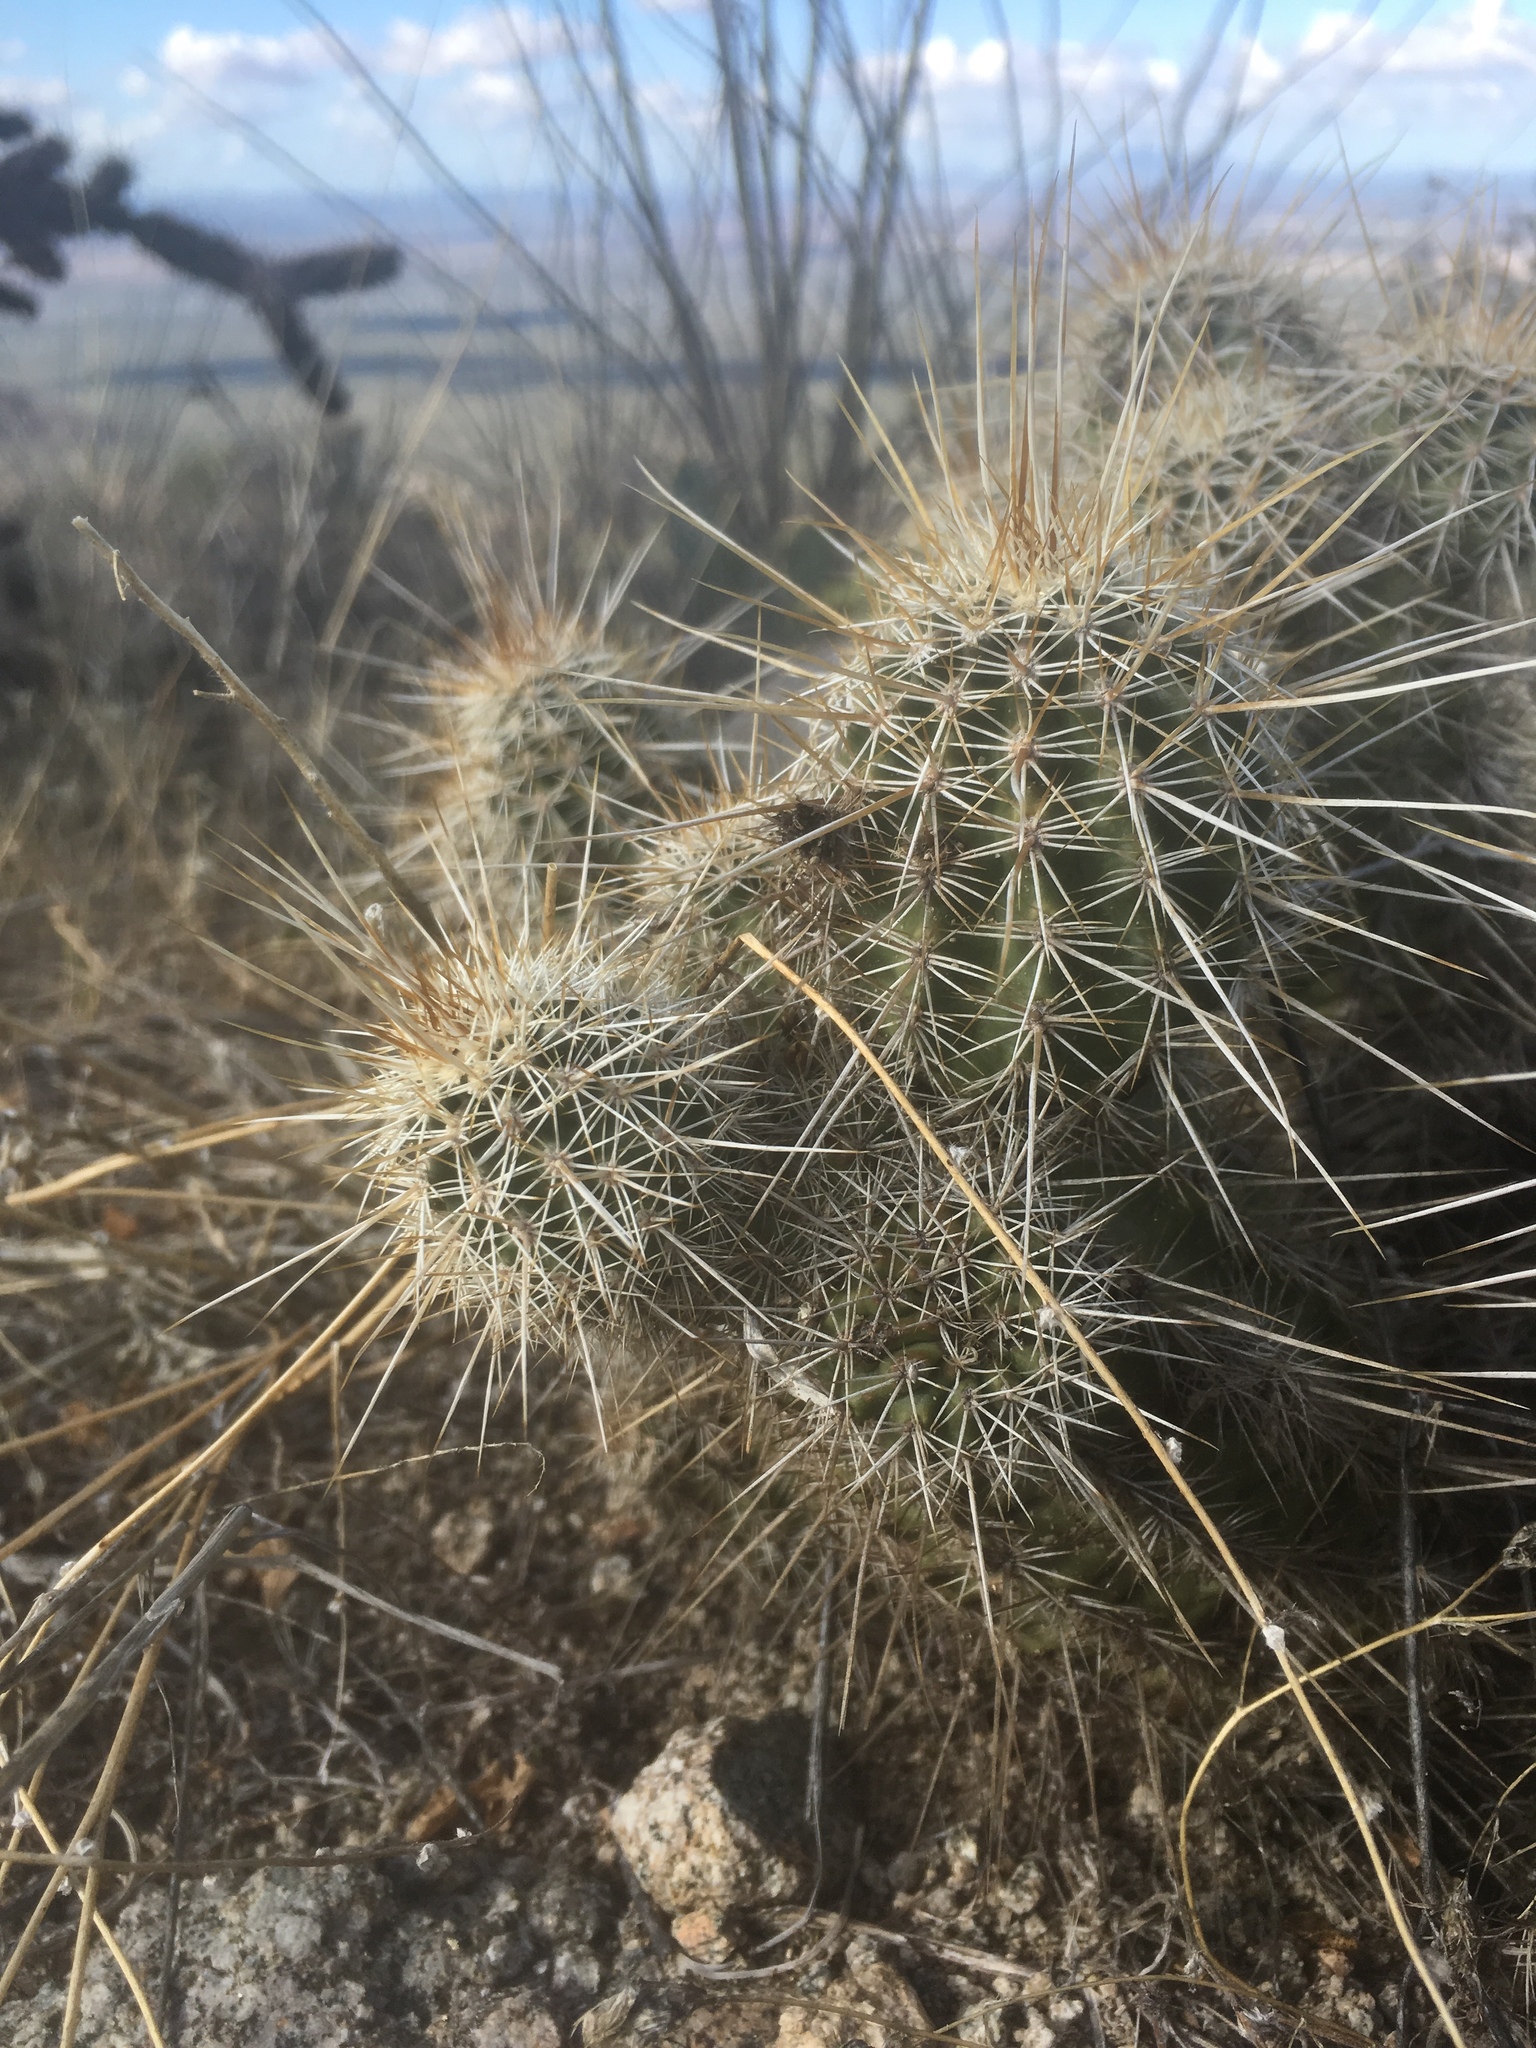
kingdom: Plantae
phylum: Tracheophyta
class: Magnoliopsida
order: Caryophyllales
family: Cactaceae
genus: Echinocereus
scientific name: Echinocereus engelmannii
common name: Engelmann's hedgehog cactus
